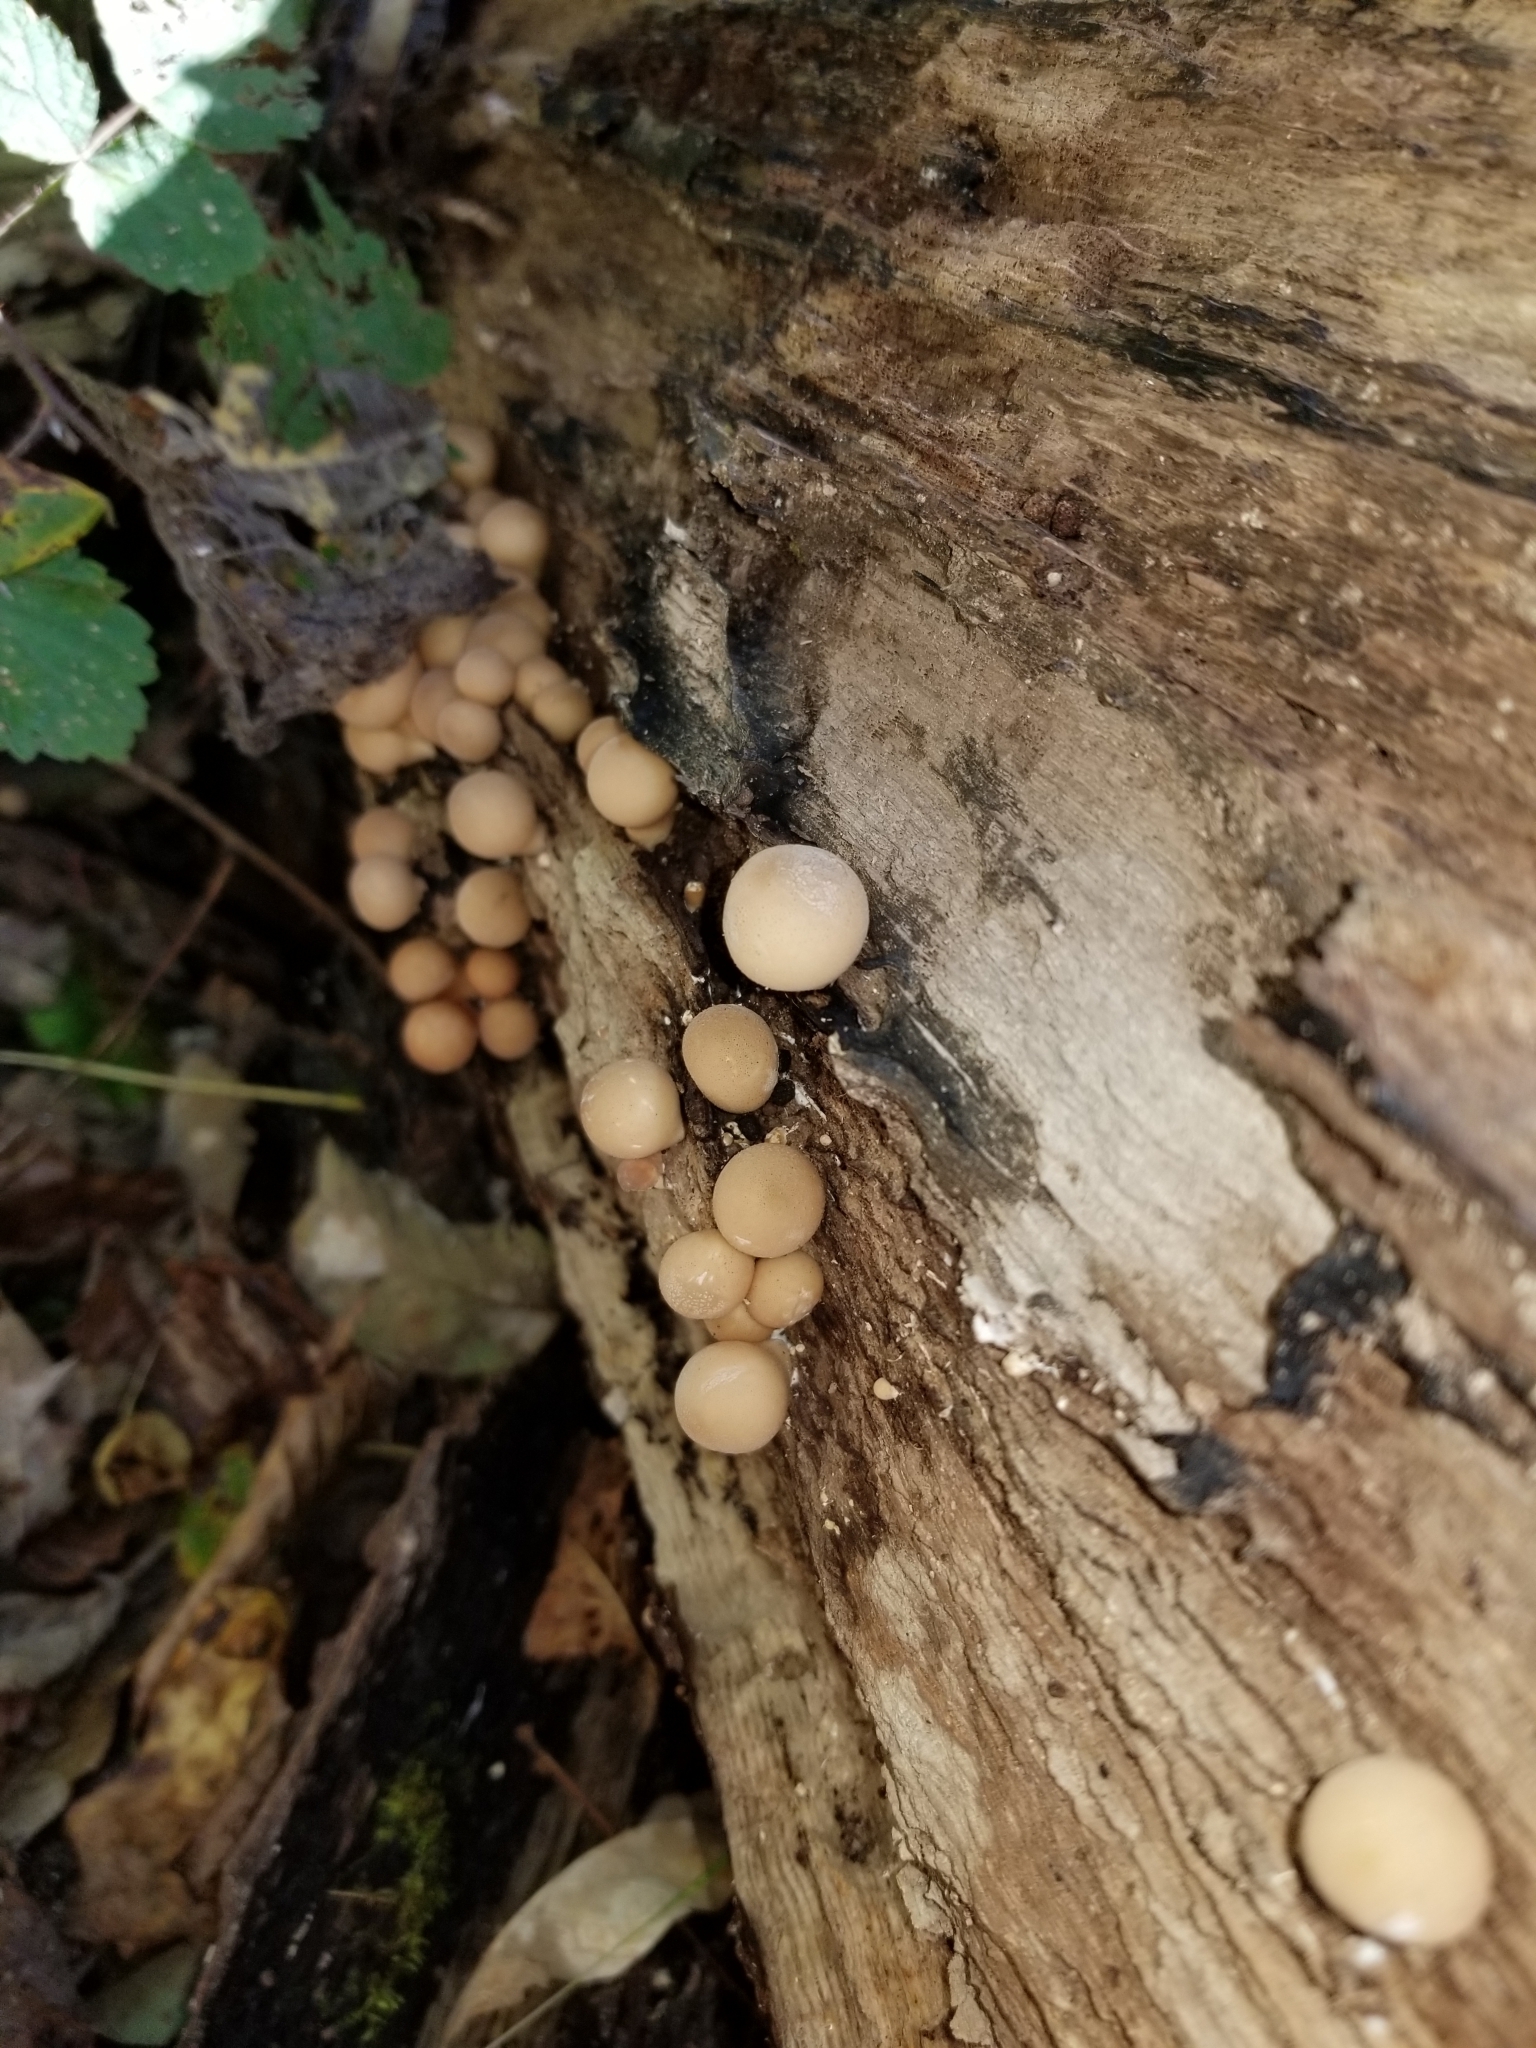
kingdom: Fungi
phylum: Basidiomycota
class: Agaricomycetes
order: Agaricales
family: Lycoperdaceae
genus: Apioperdon
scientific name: Apioperdon pyriforme
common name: Pear-shaped puffball
